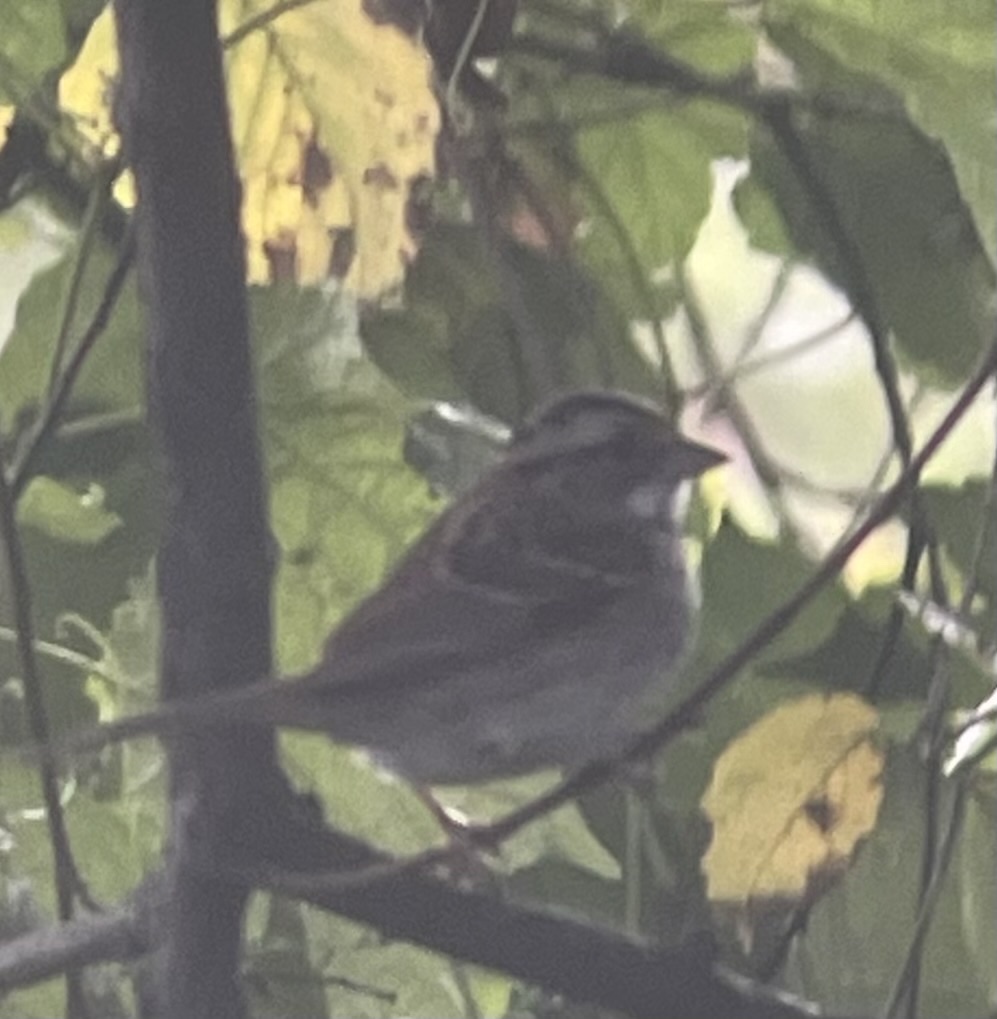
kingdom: Animalia
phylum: Chordata
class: Aves
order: Passeriformes
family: Passerellidae
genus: Zonotrichia
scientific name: Zonotrichia albicollis
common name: White-throated sparrow
